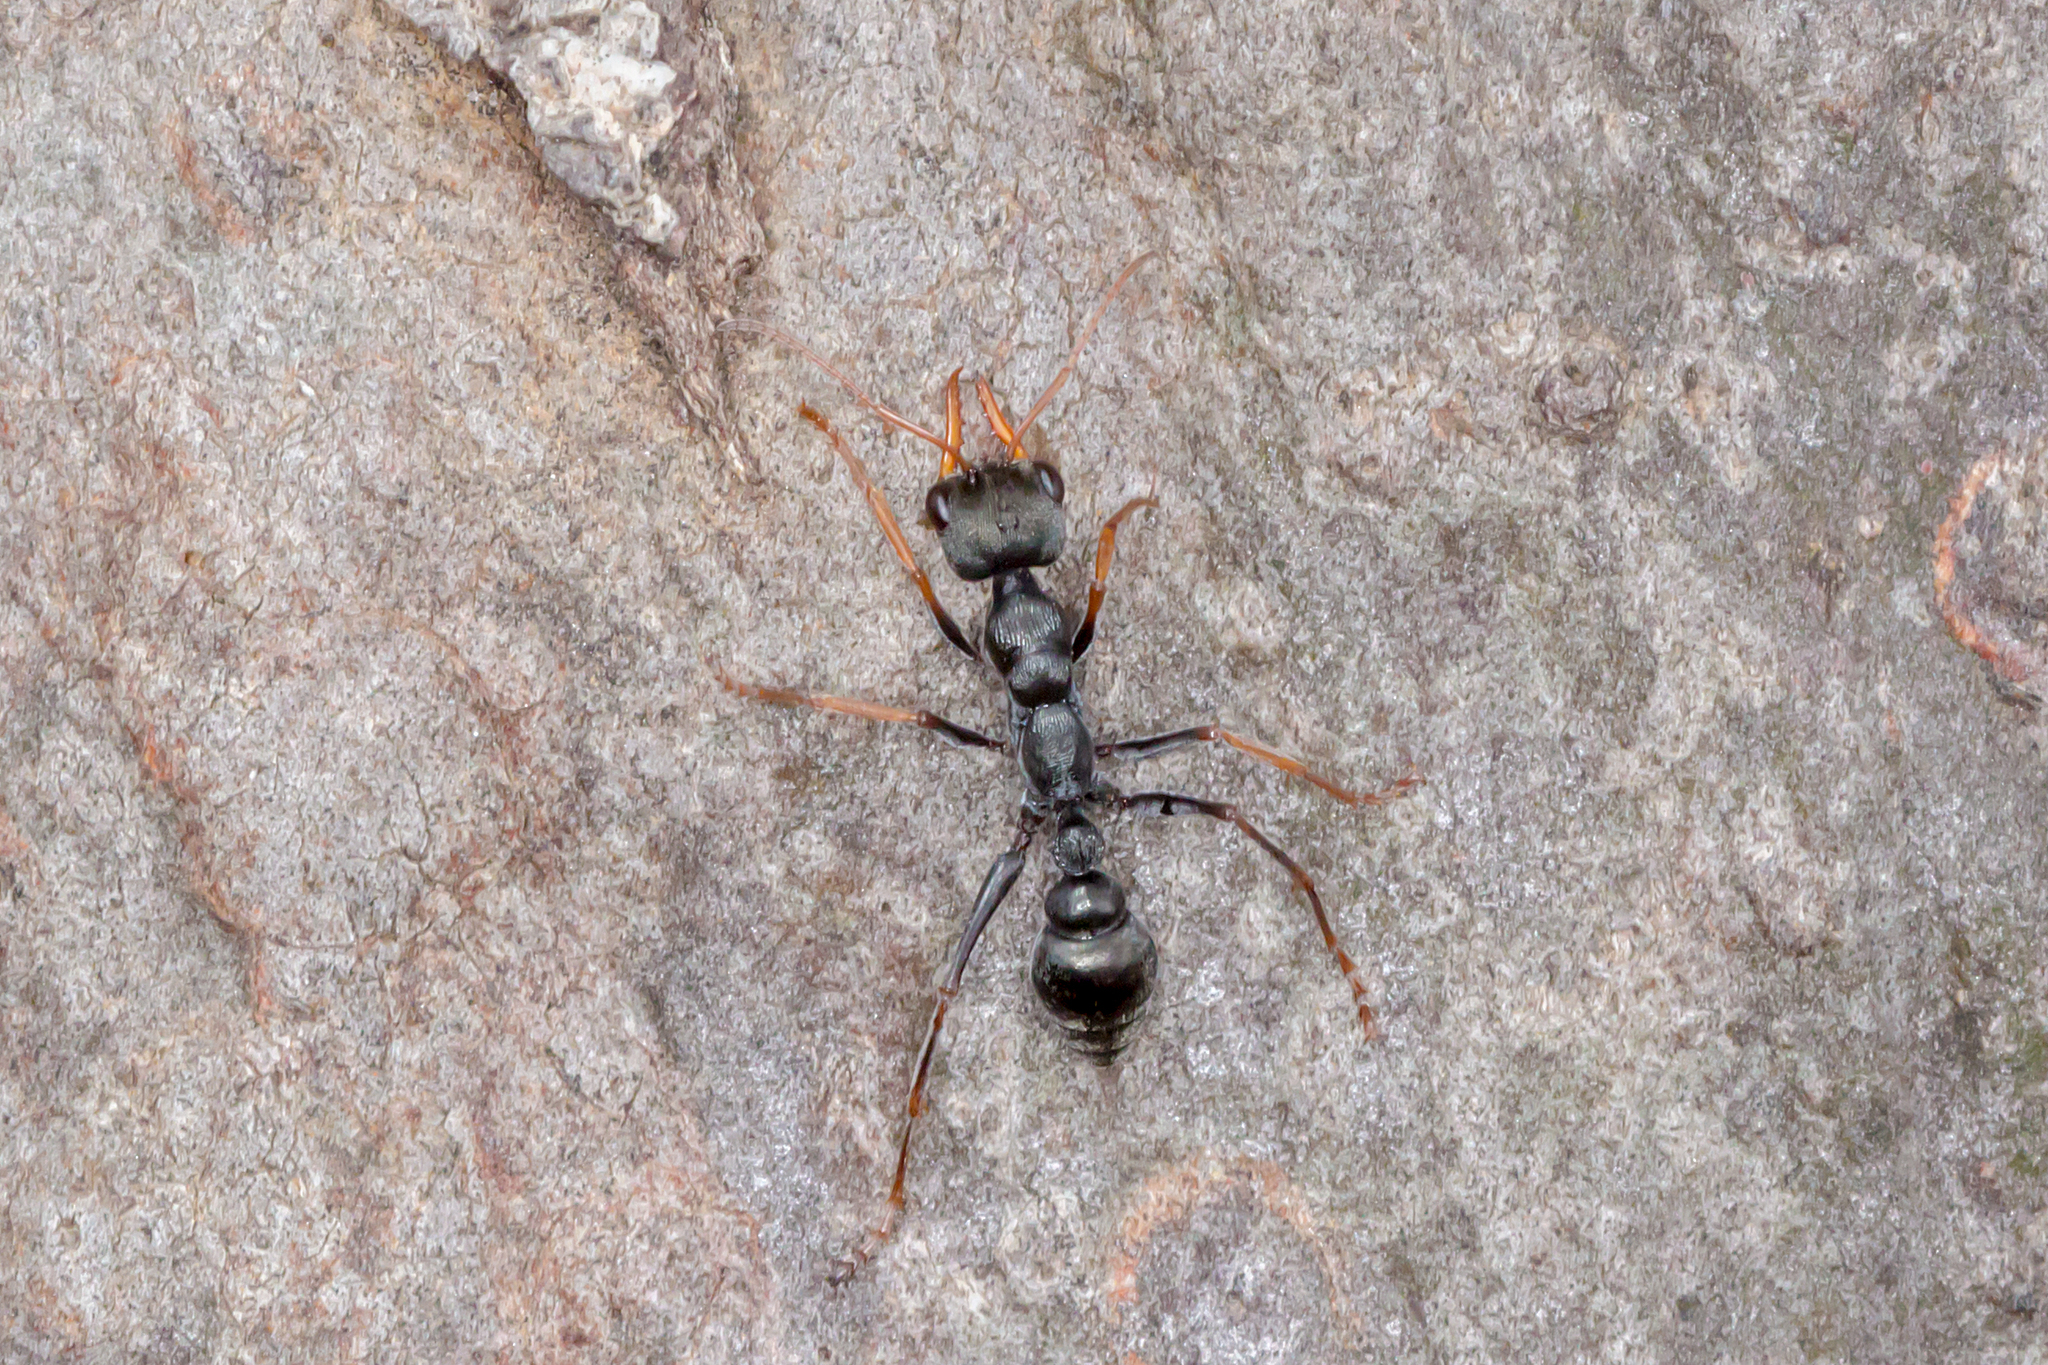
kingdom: Animalia
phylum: Arthropoda
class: Insecta
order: Hymenoptera
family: Formicidae
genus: Myrmecia
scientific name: Myrmecia pilosula
